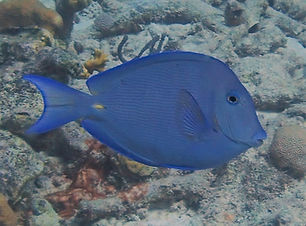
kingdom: Animalia
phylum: Chordata
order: Perciformes
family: Acanthuridae
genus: Acanthurus
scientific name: Acanthurus coeruleus
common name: Blue tang
